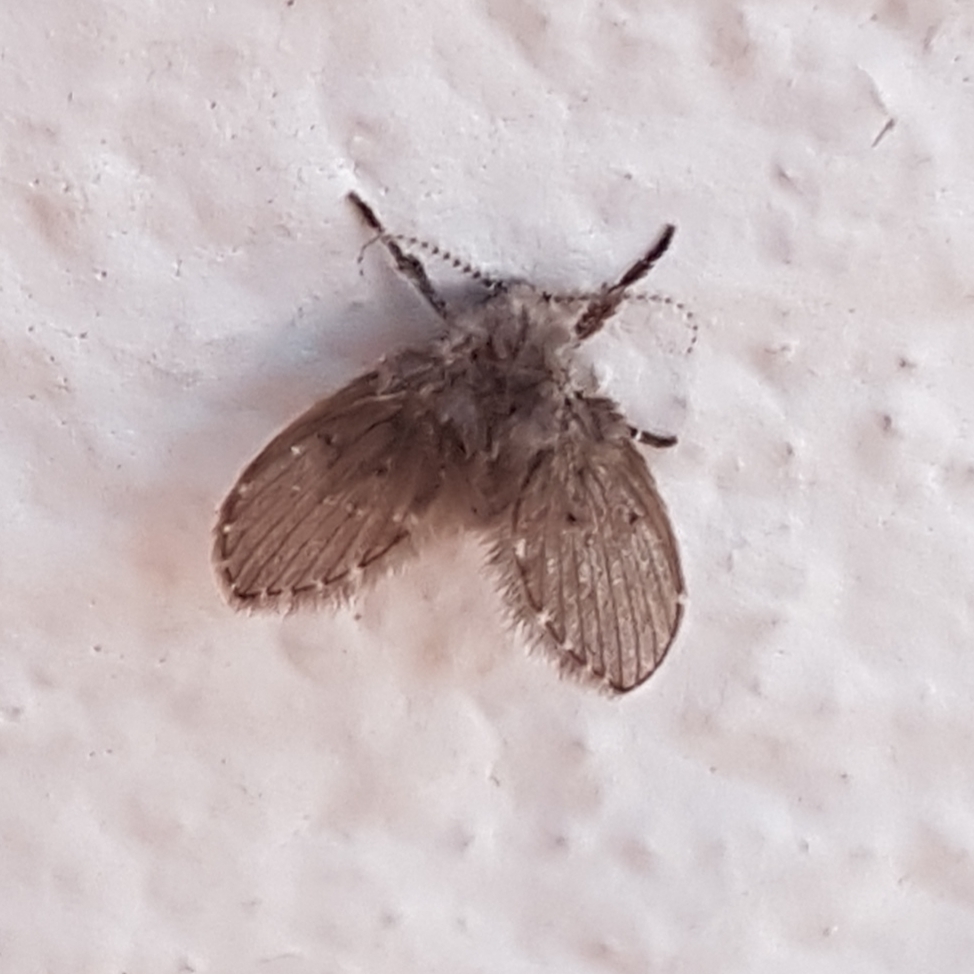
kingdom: Animalia
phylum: Arthropoda
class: Insecta
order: Diptera
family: Psychodidae
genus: Clogmia
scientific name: Clogmia albipunctatus
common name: White-spotted moth fly
